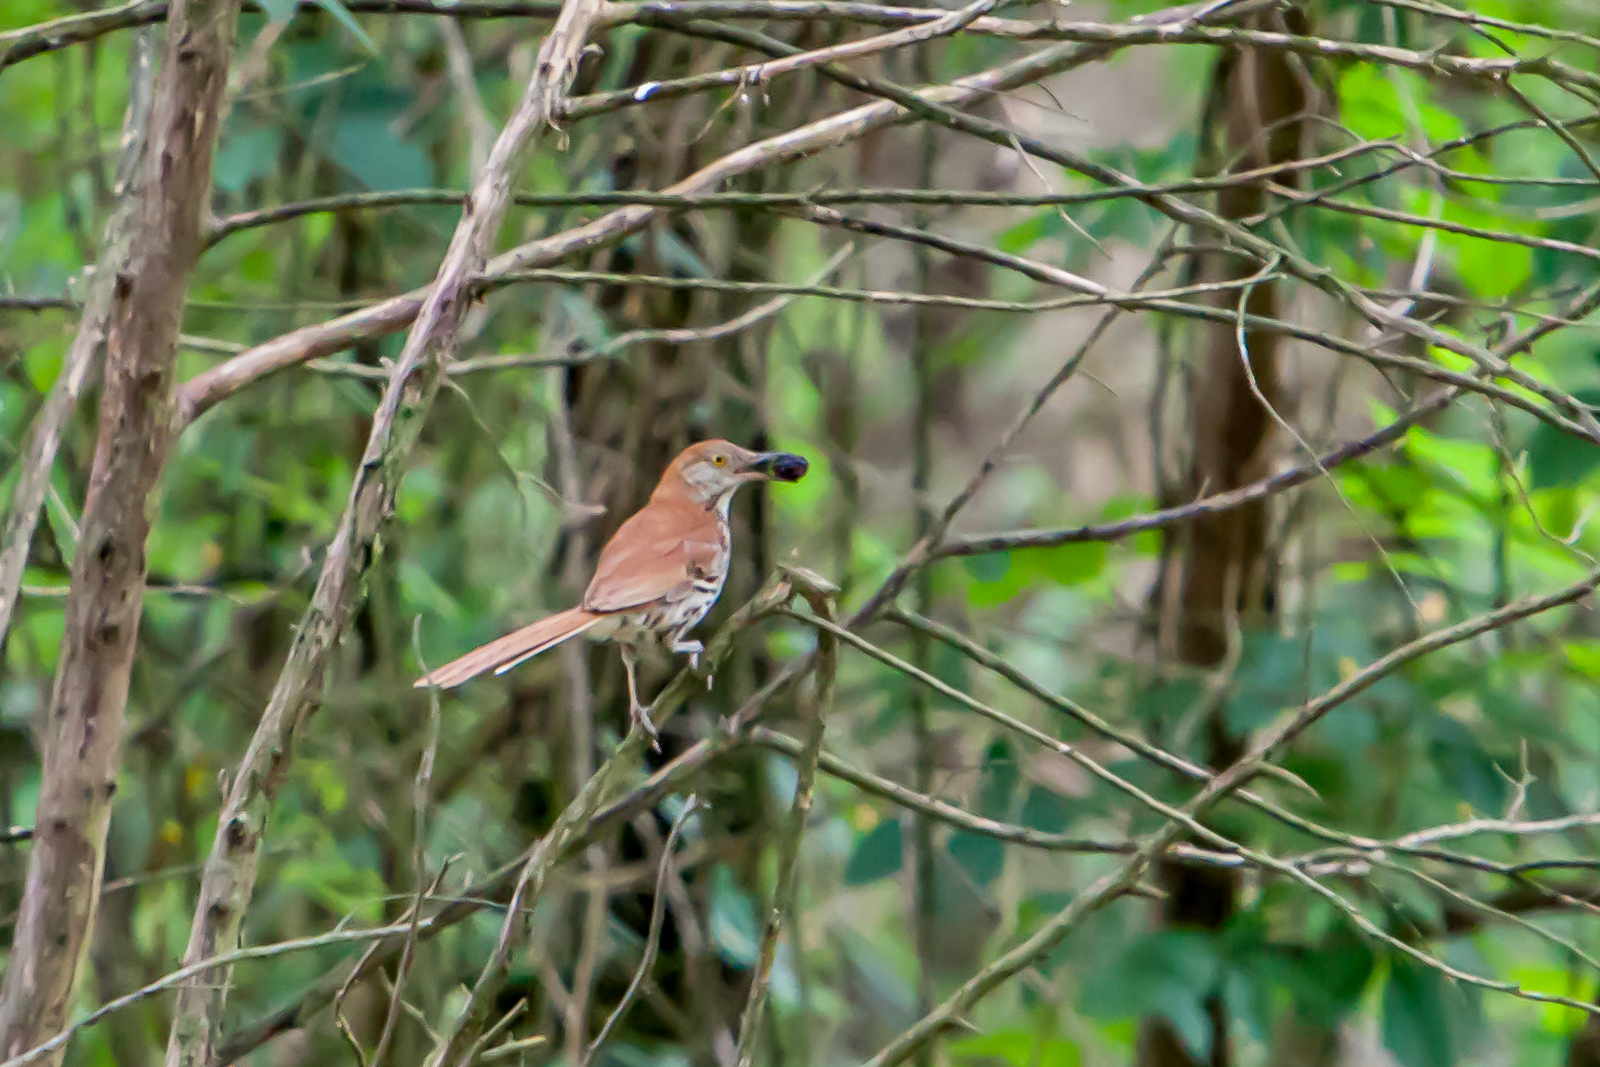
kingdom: Animalia
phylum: Chordata
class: Aves
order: Passeriformes
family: Mimidae
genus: Toxostoma
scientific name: Toxostoma rufum
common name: Brown thrasher
